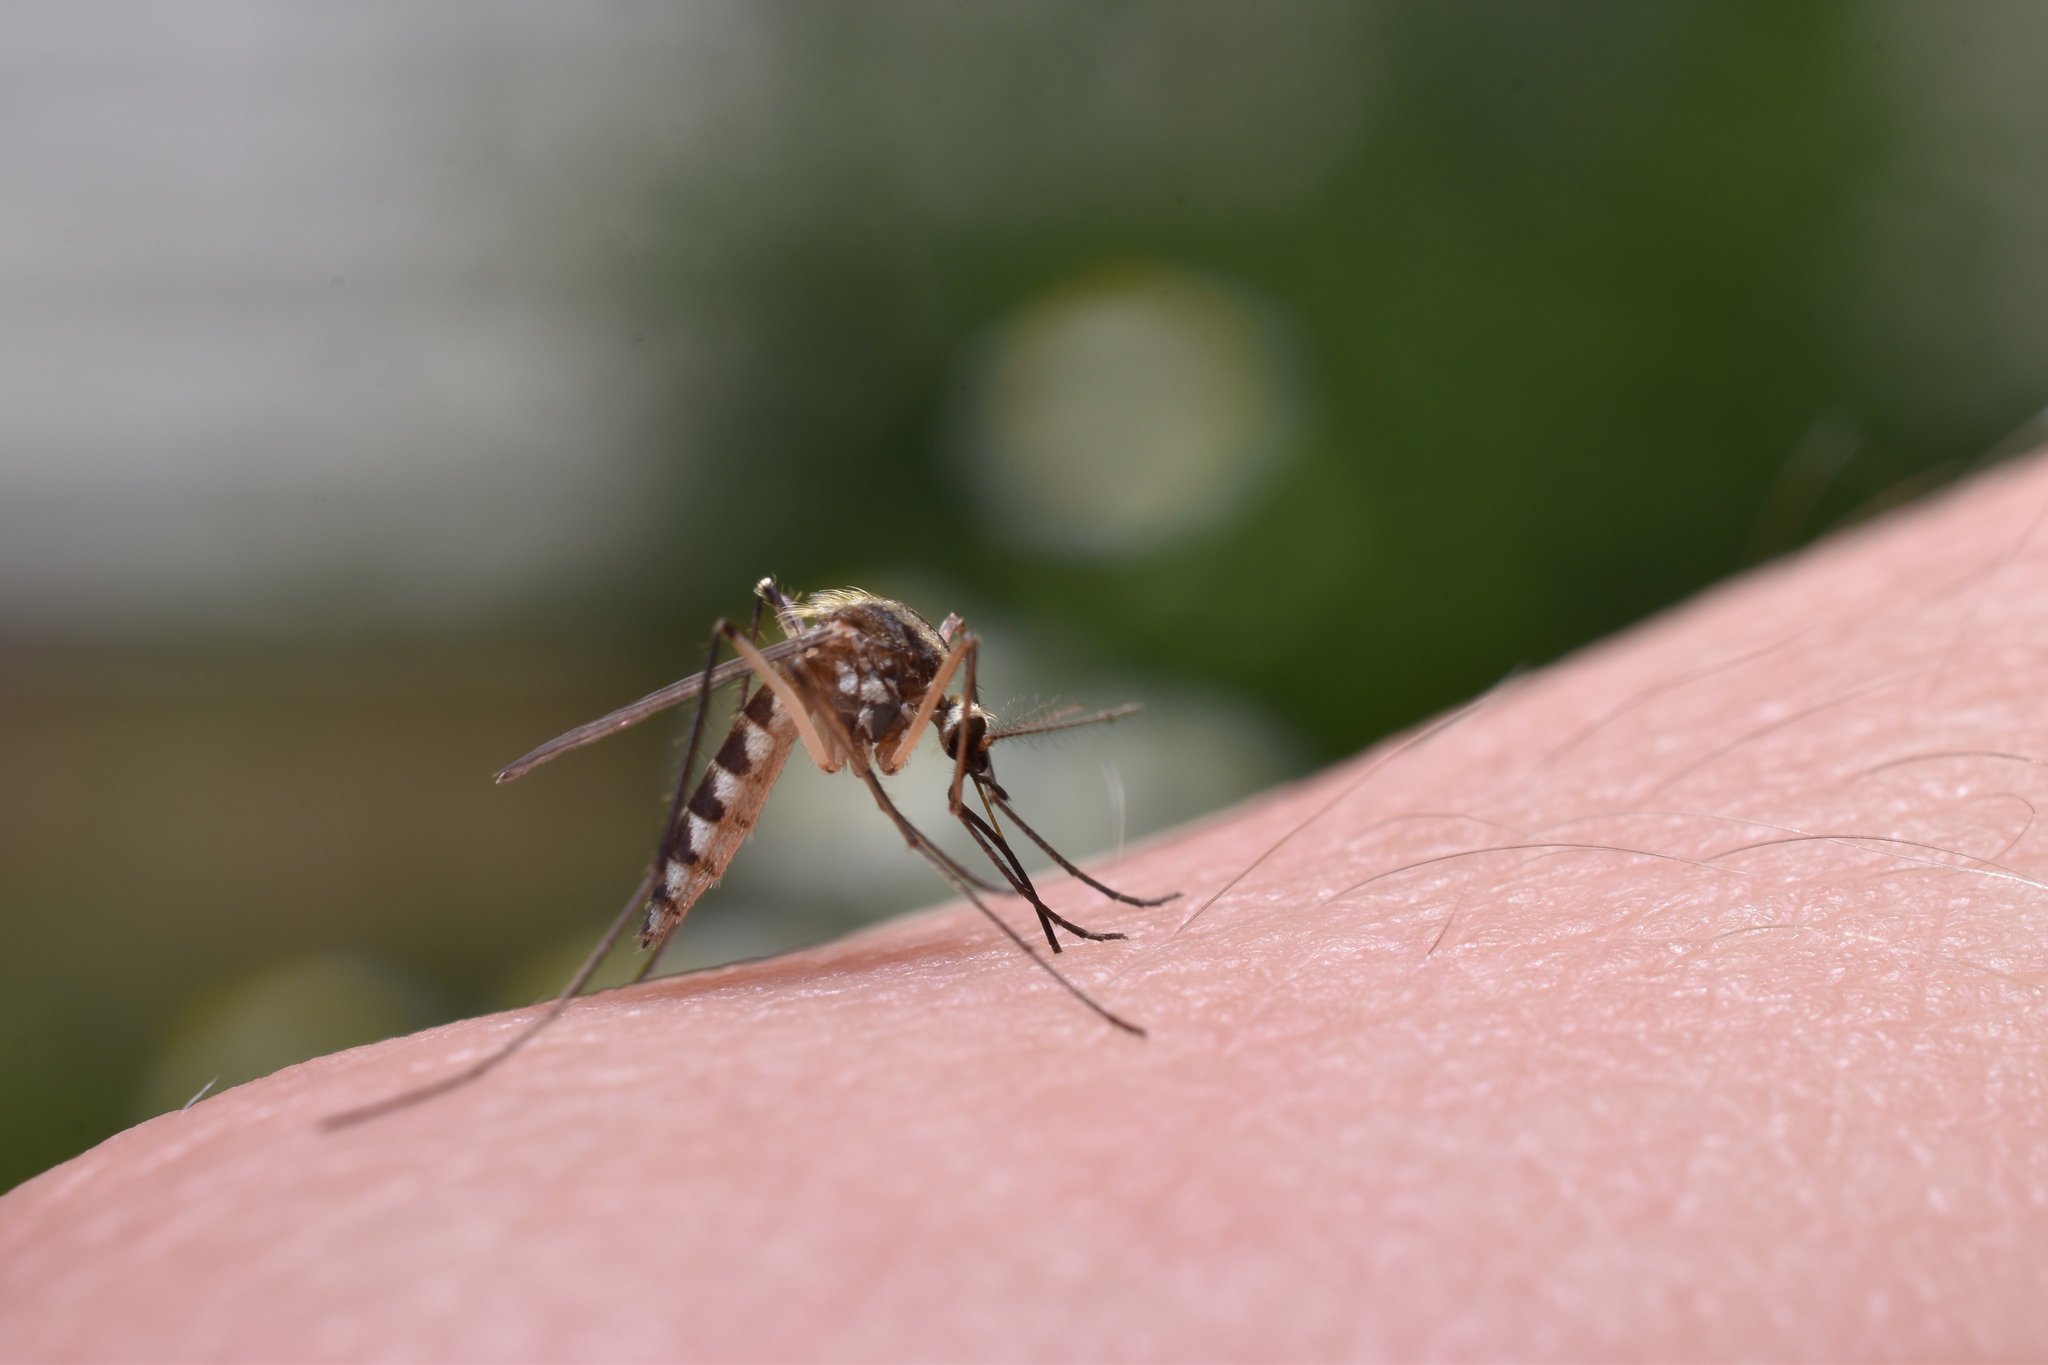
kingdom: Animalia
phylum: Arthropoda
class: Insecta
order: Diptera
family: Culicidae
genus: Aedes
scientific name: Aedes trivittatus
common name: Plains floodwater mosquito
